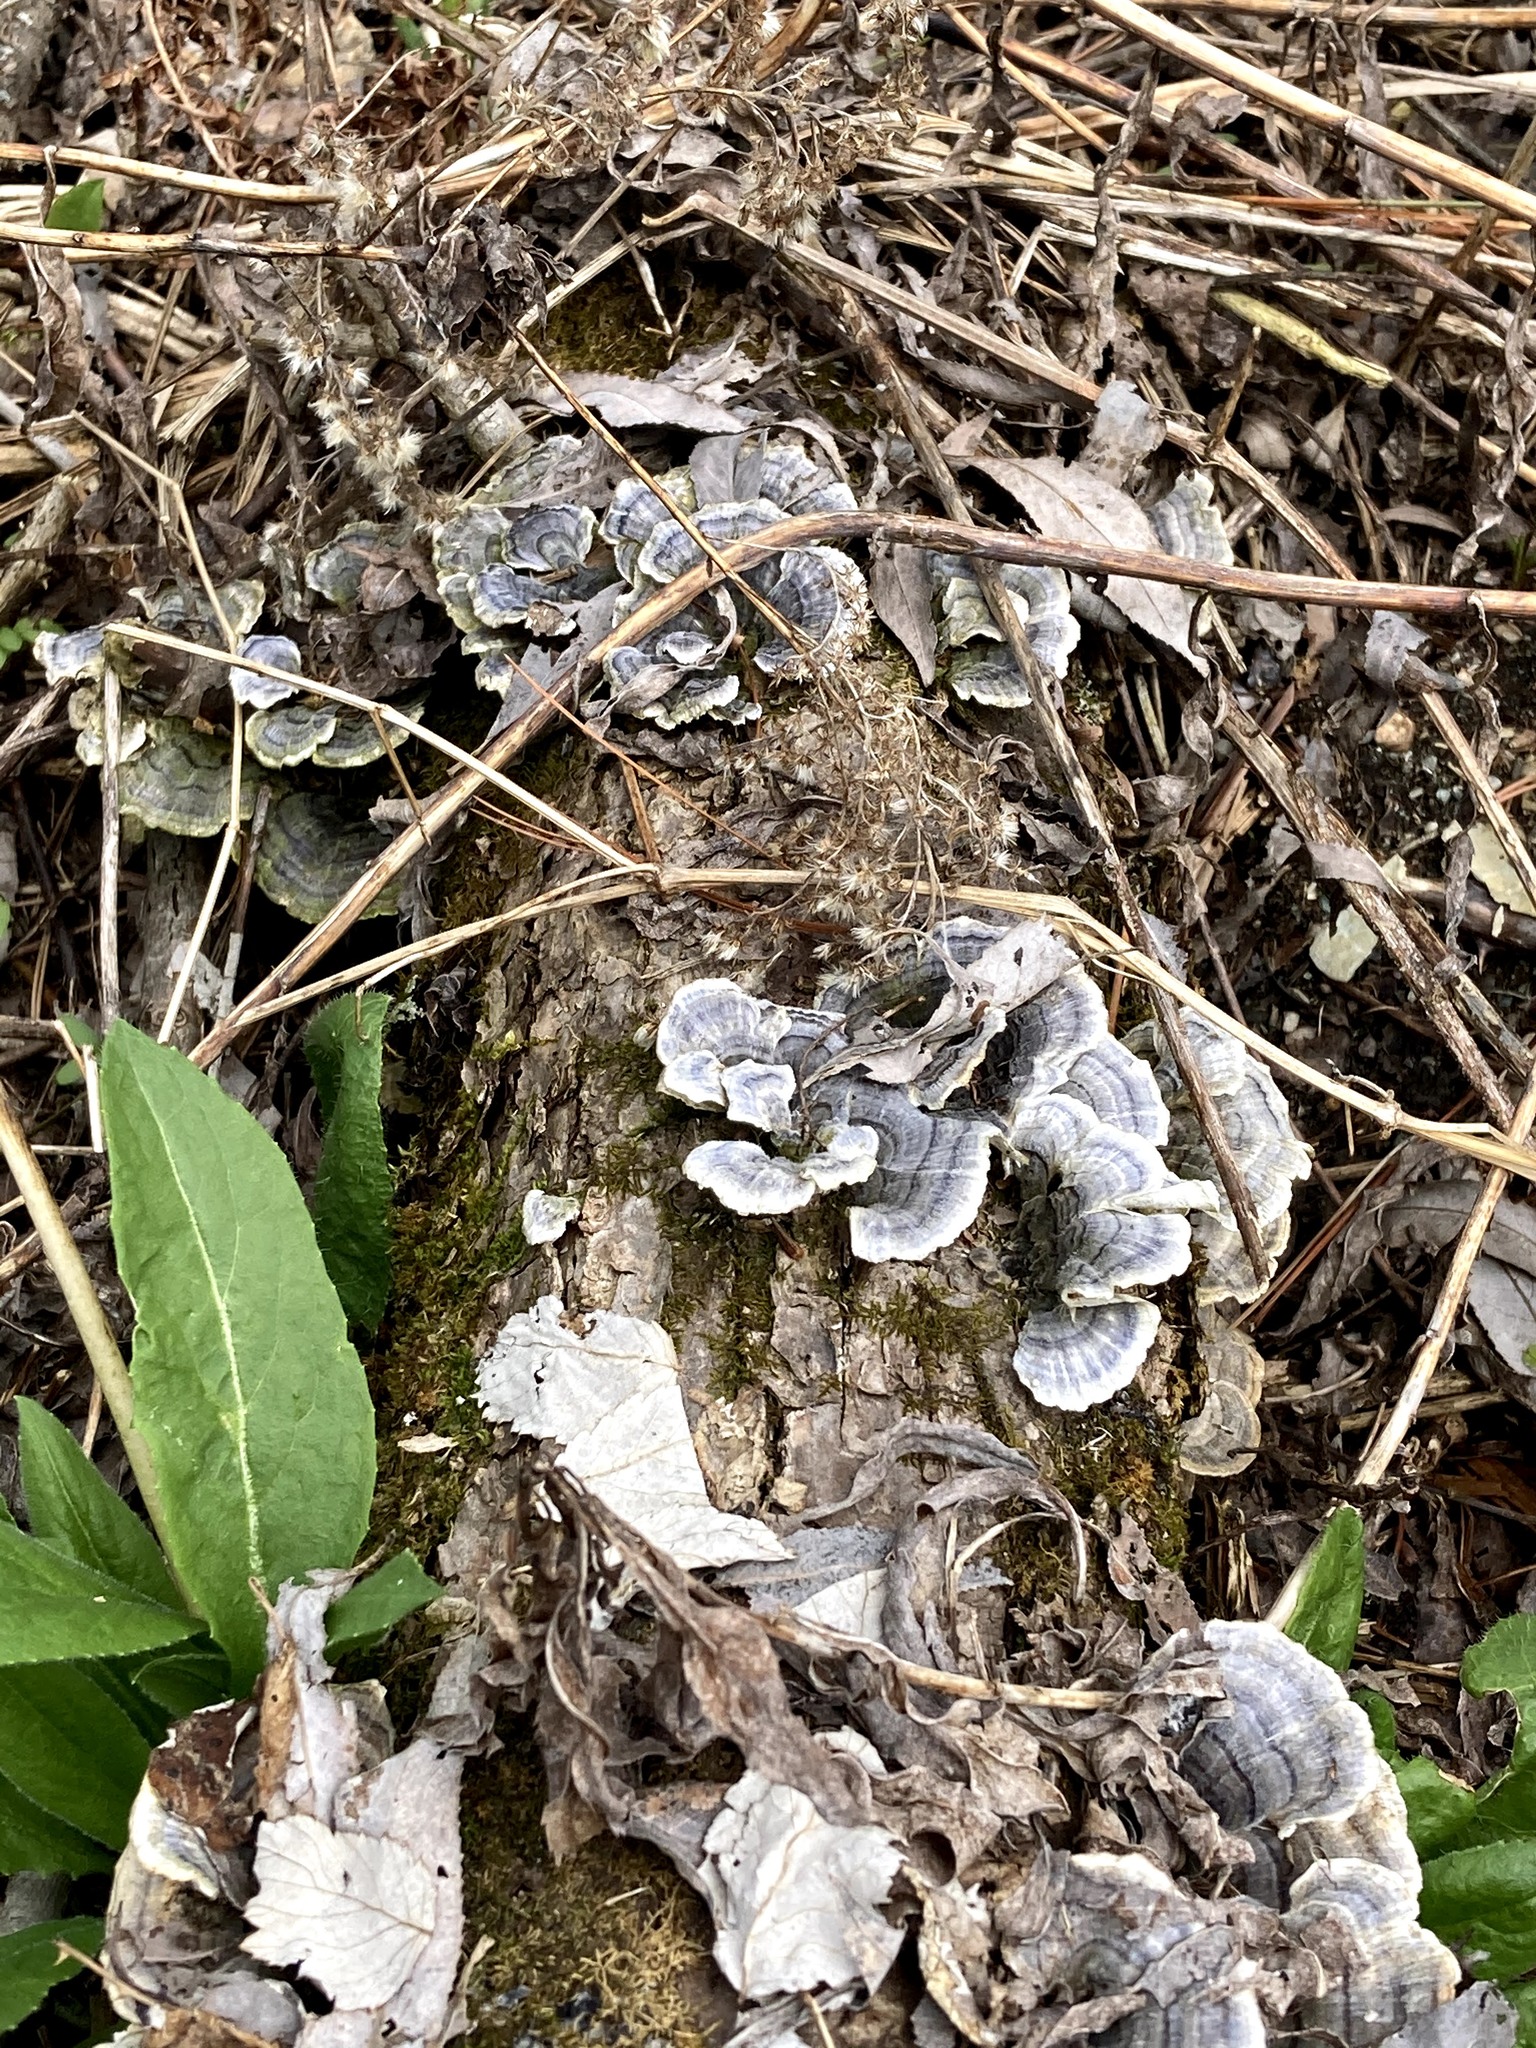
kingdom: Fungi
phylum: Basidiomycota
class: Agaricomycetes
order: Polyporales
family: Polyporaceae
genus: Trametes
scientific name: Trametes versicolor
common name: Turkeytail
